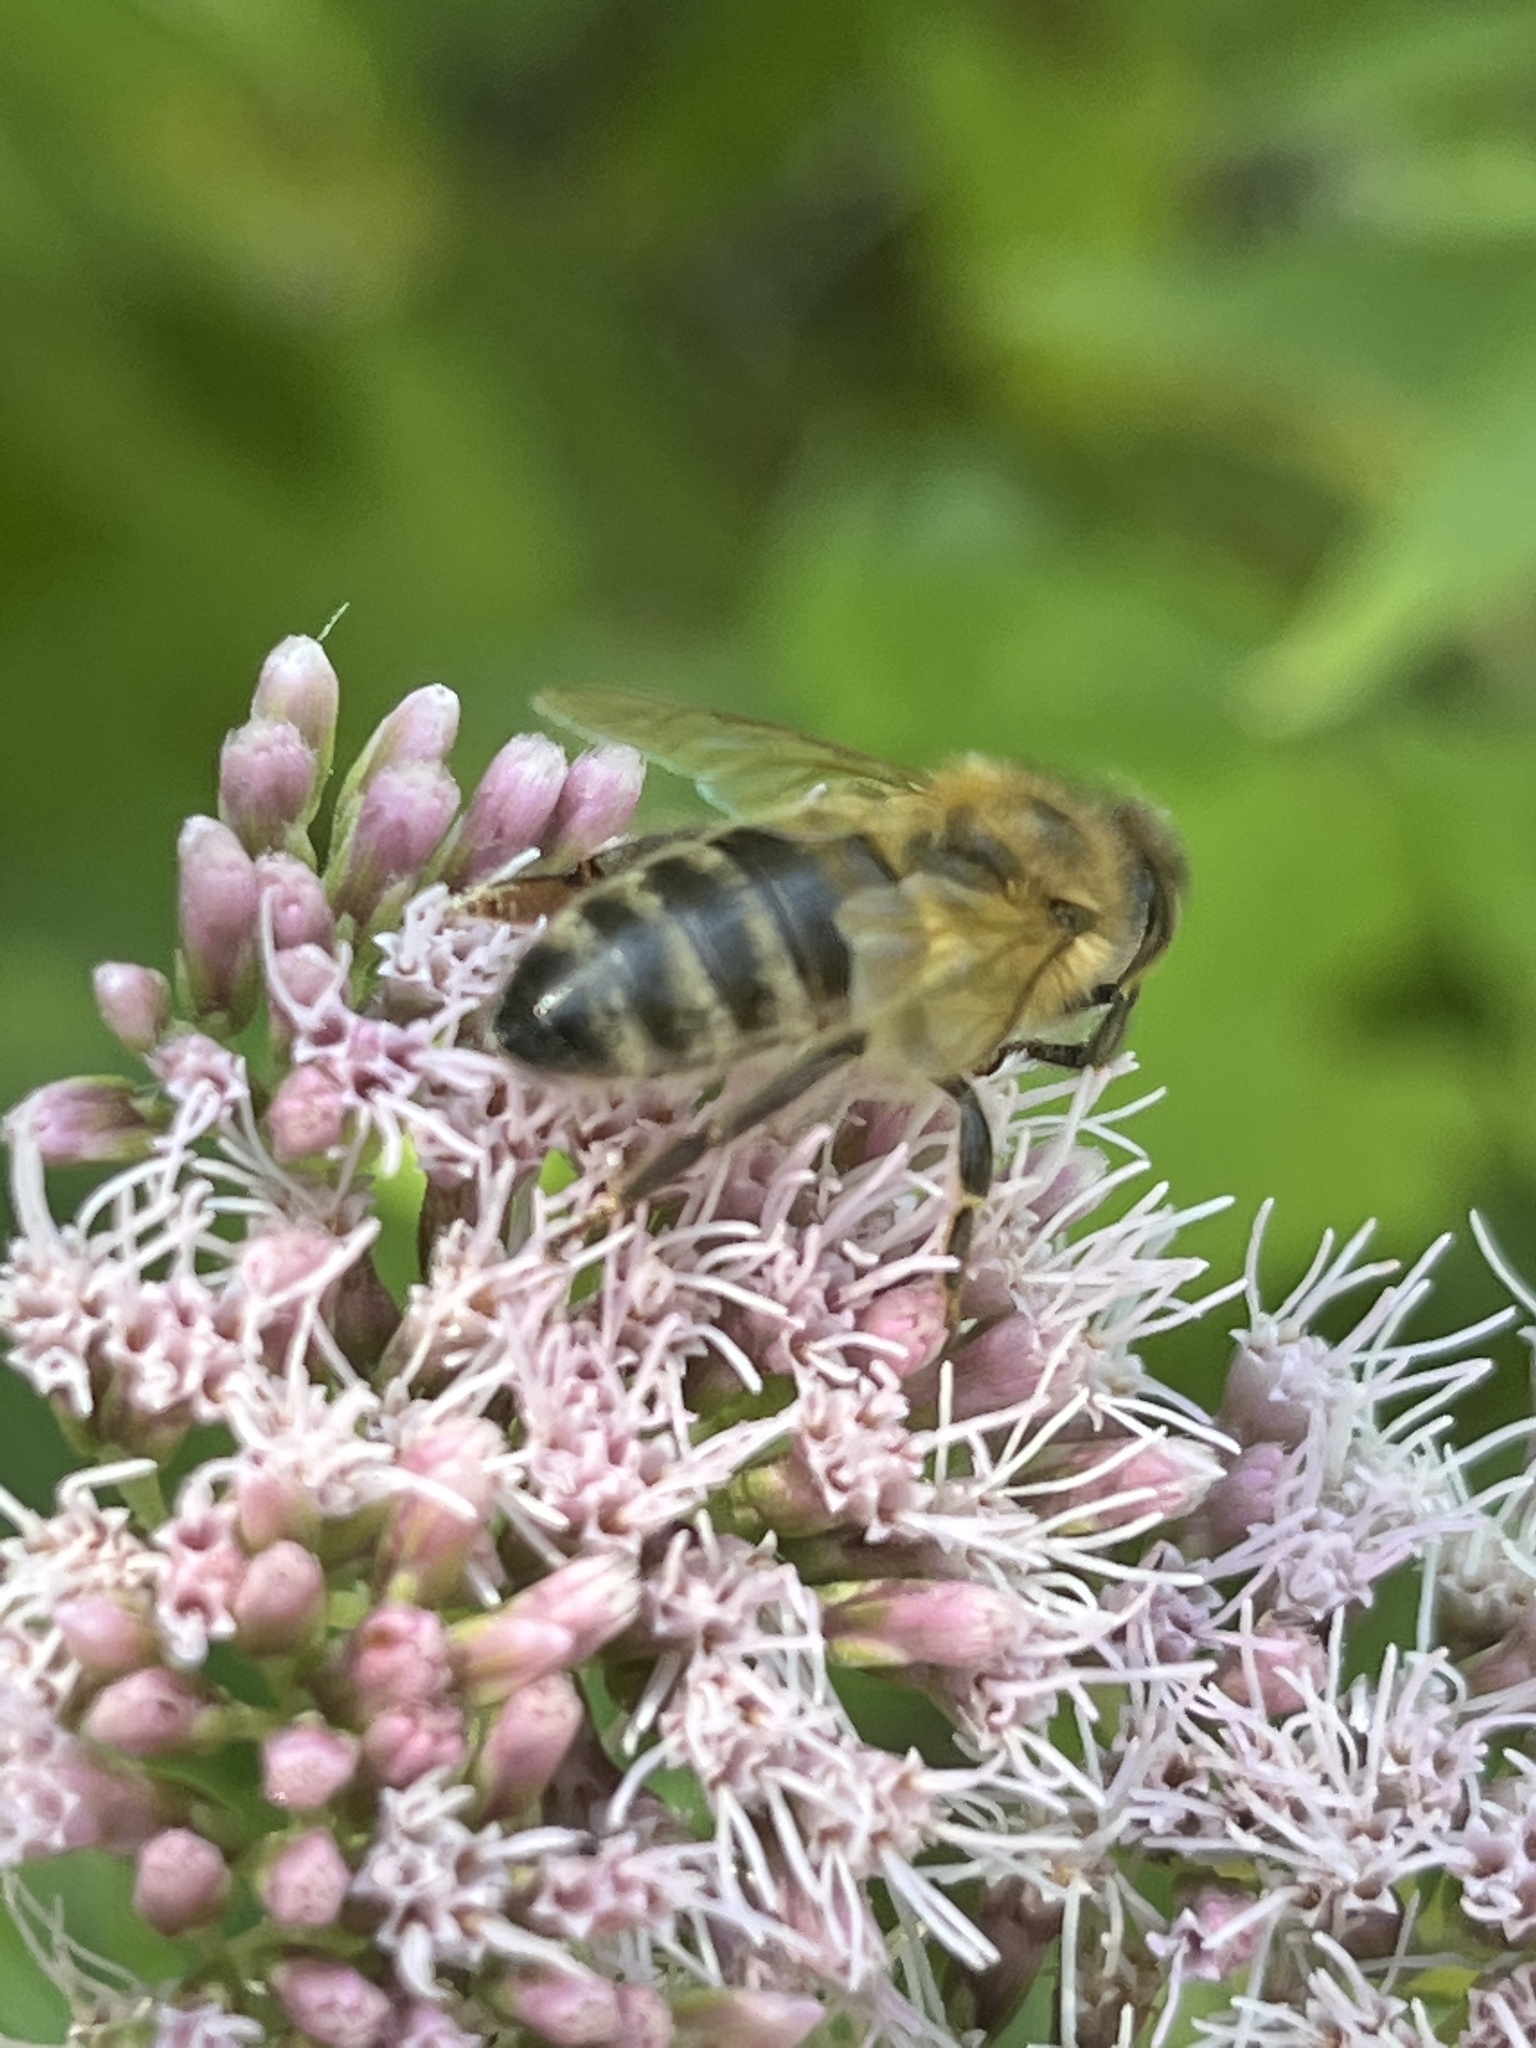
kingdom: Animalia
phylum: Arthropoda
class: Insecta
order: Hymenoptera
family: Apidae
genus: Apis
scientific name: Apis mellifera
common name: Honey bee
